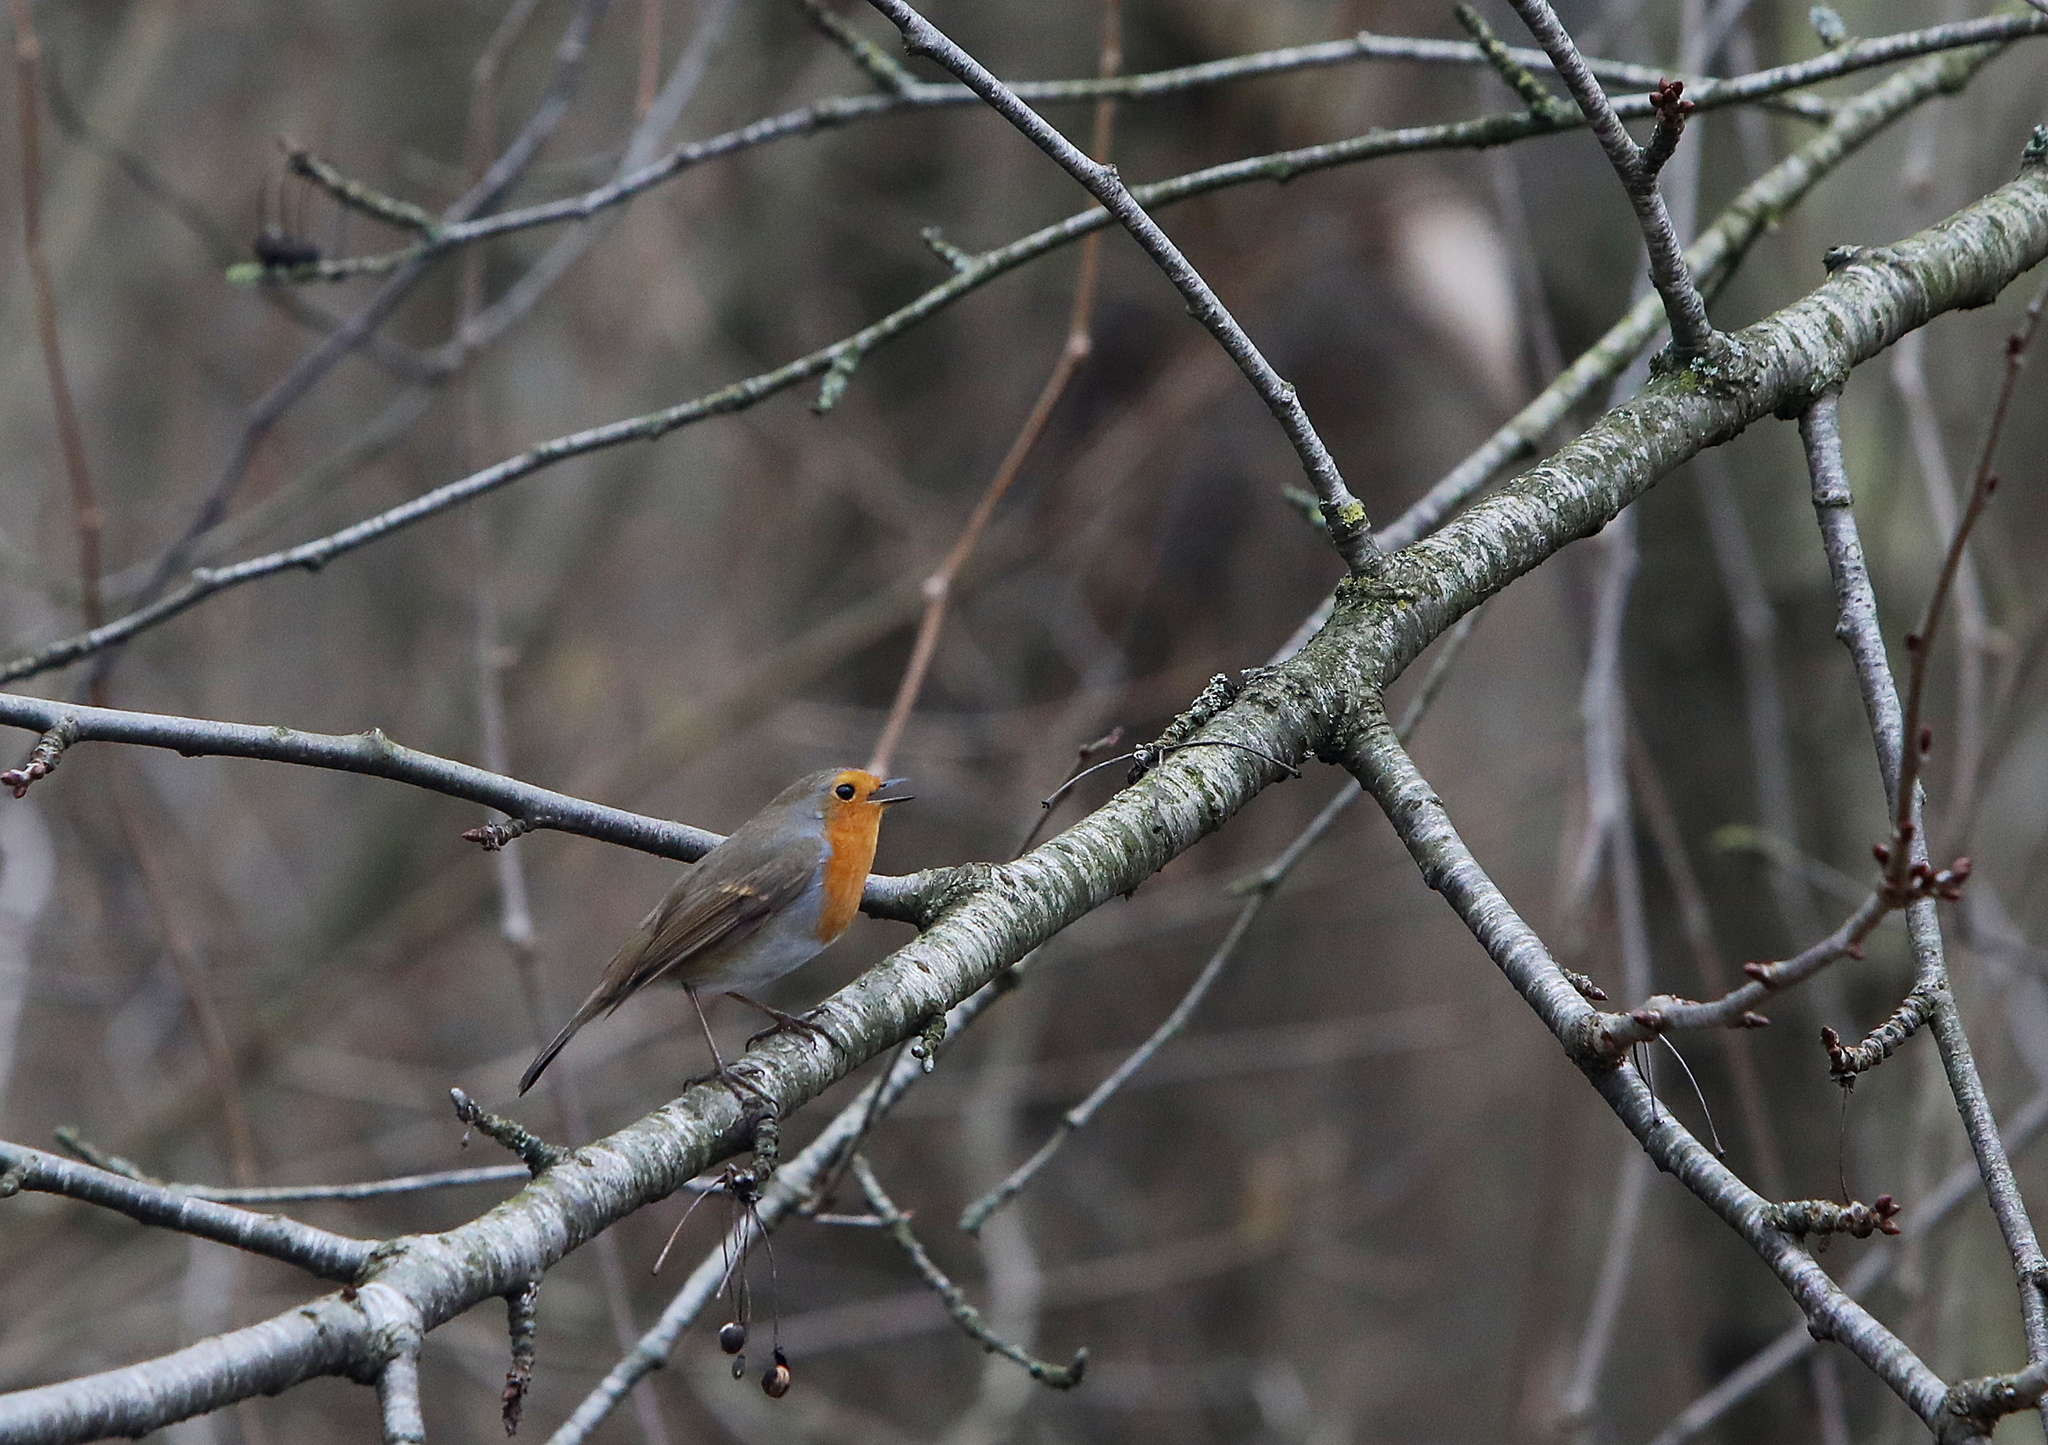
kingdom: Animalia
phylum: Chordata
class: Aves
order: Passeriformes
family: Muscicapidae
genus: Erithacus
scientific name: Erithacus rubecula
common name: European robin
